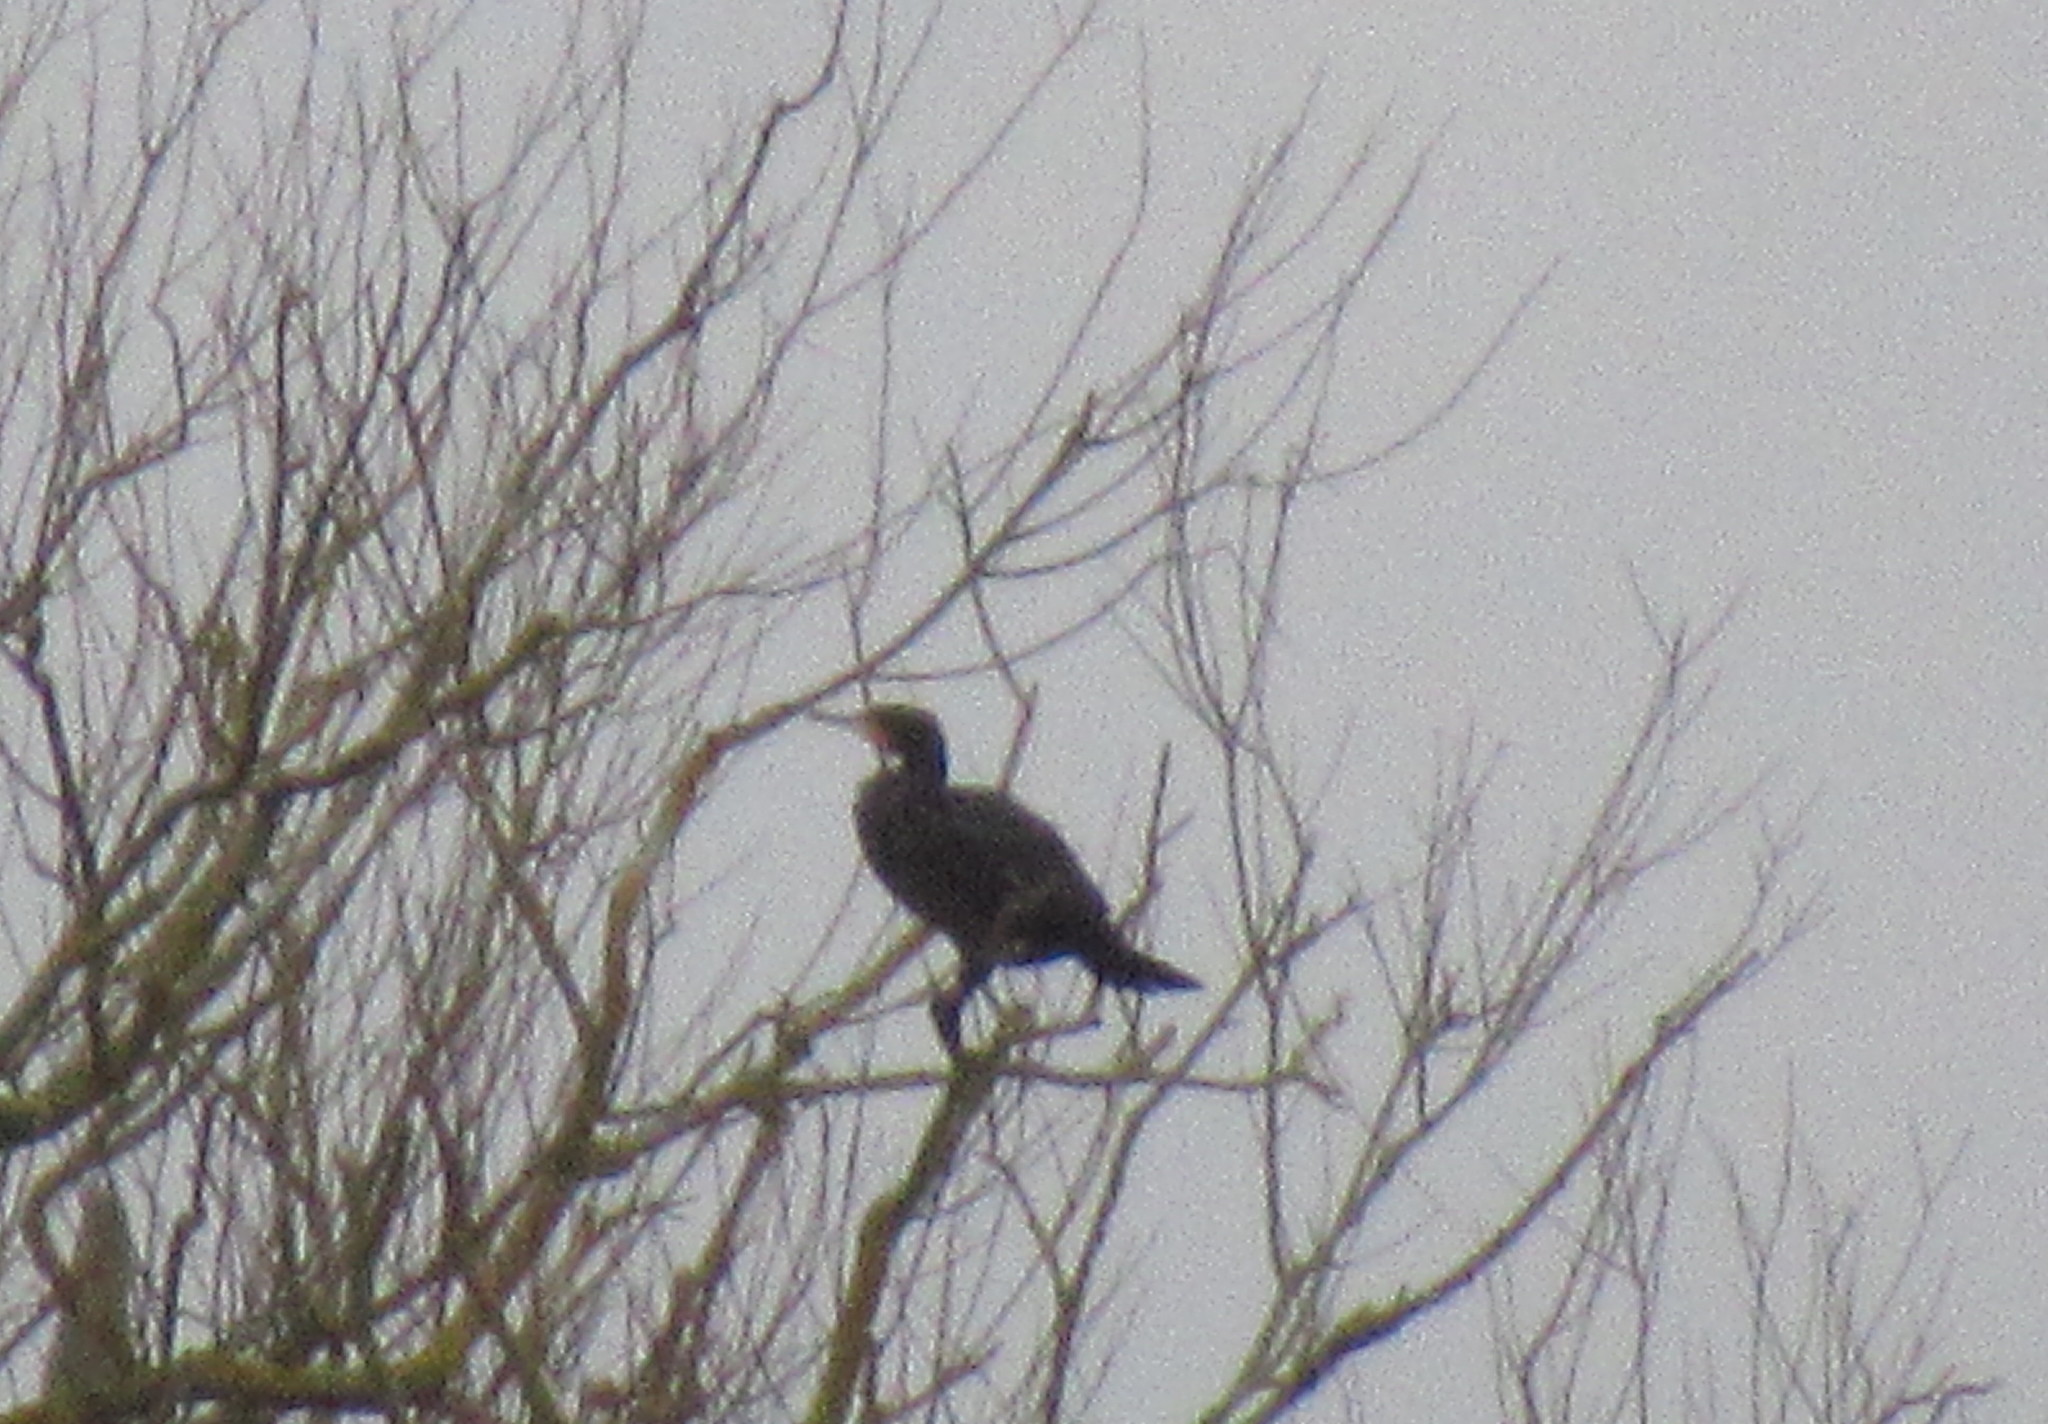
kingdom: Animalia
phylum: Chordata
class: Aves
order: Suliformes
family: Phalacrocoracidae
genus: Phalacrocorax
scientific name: Phalacrocorax carbo
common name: Great cormorant
